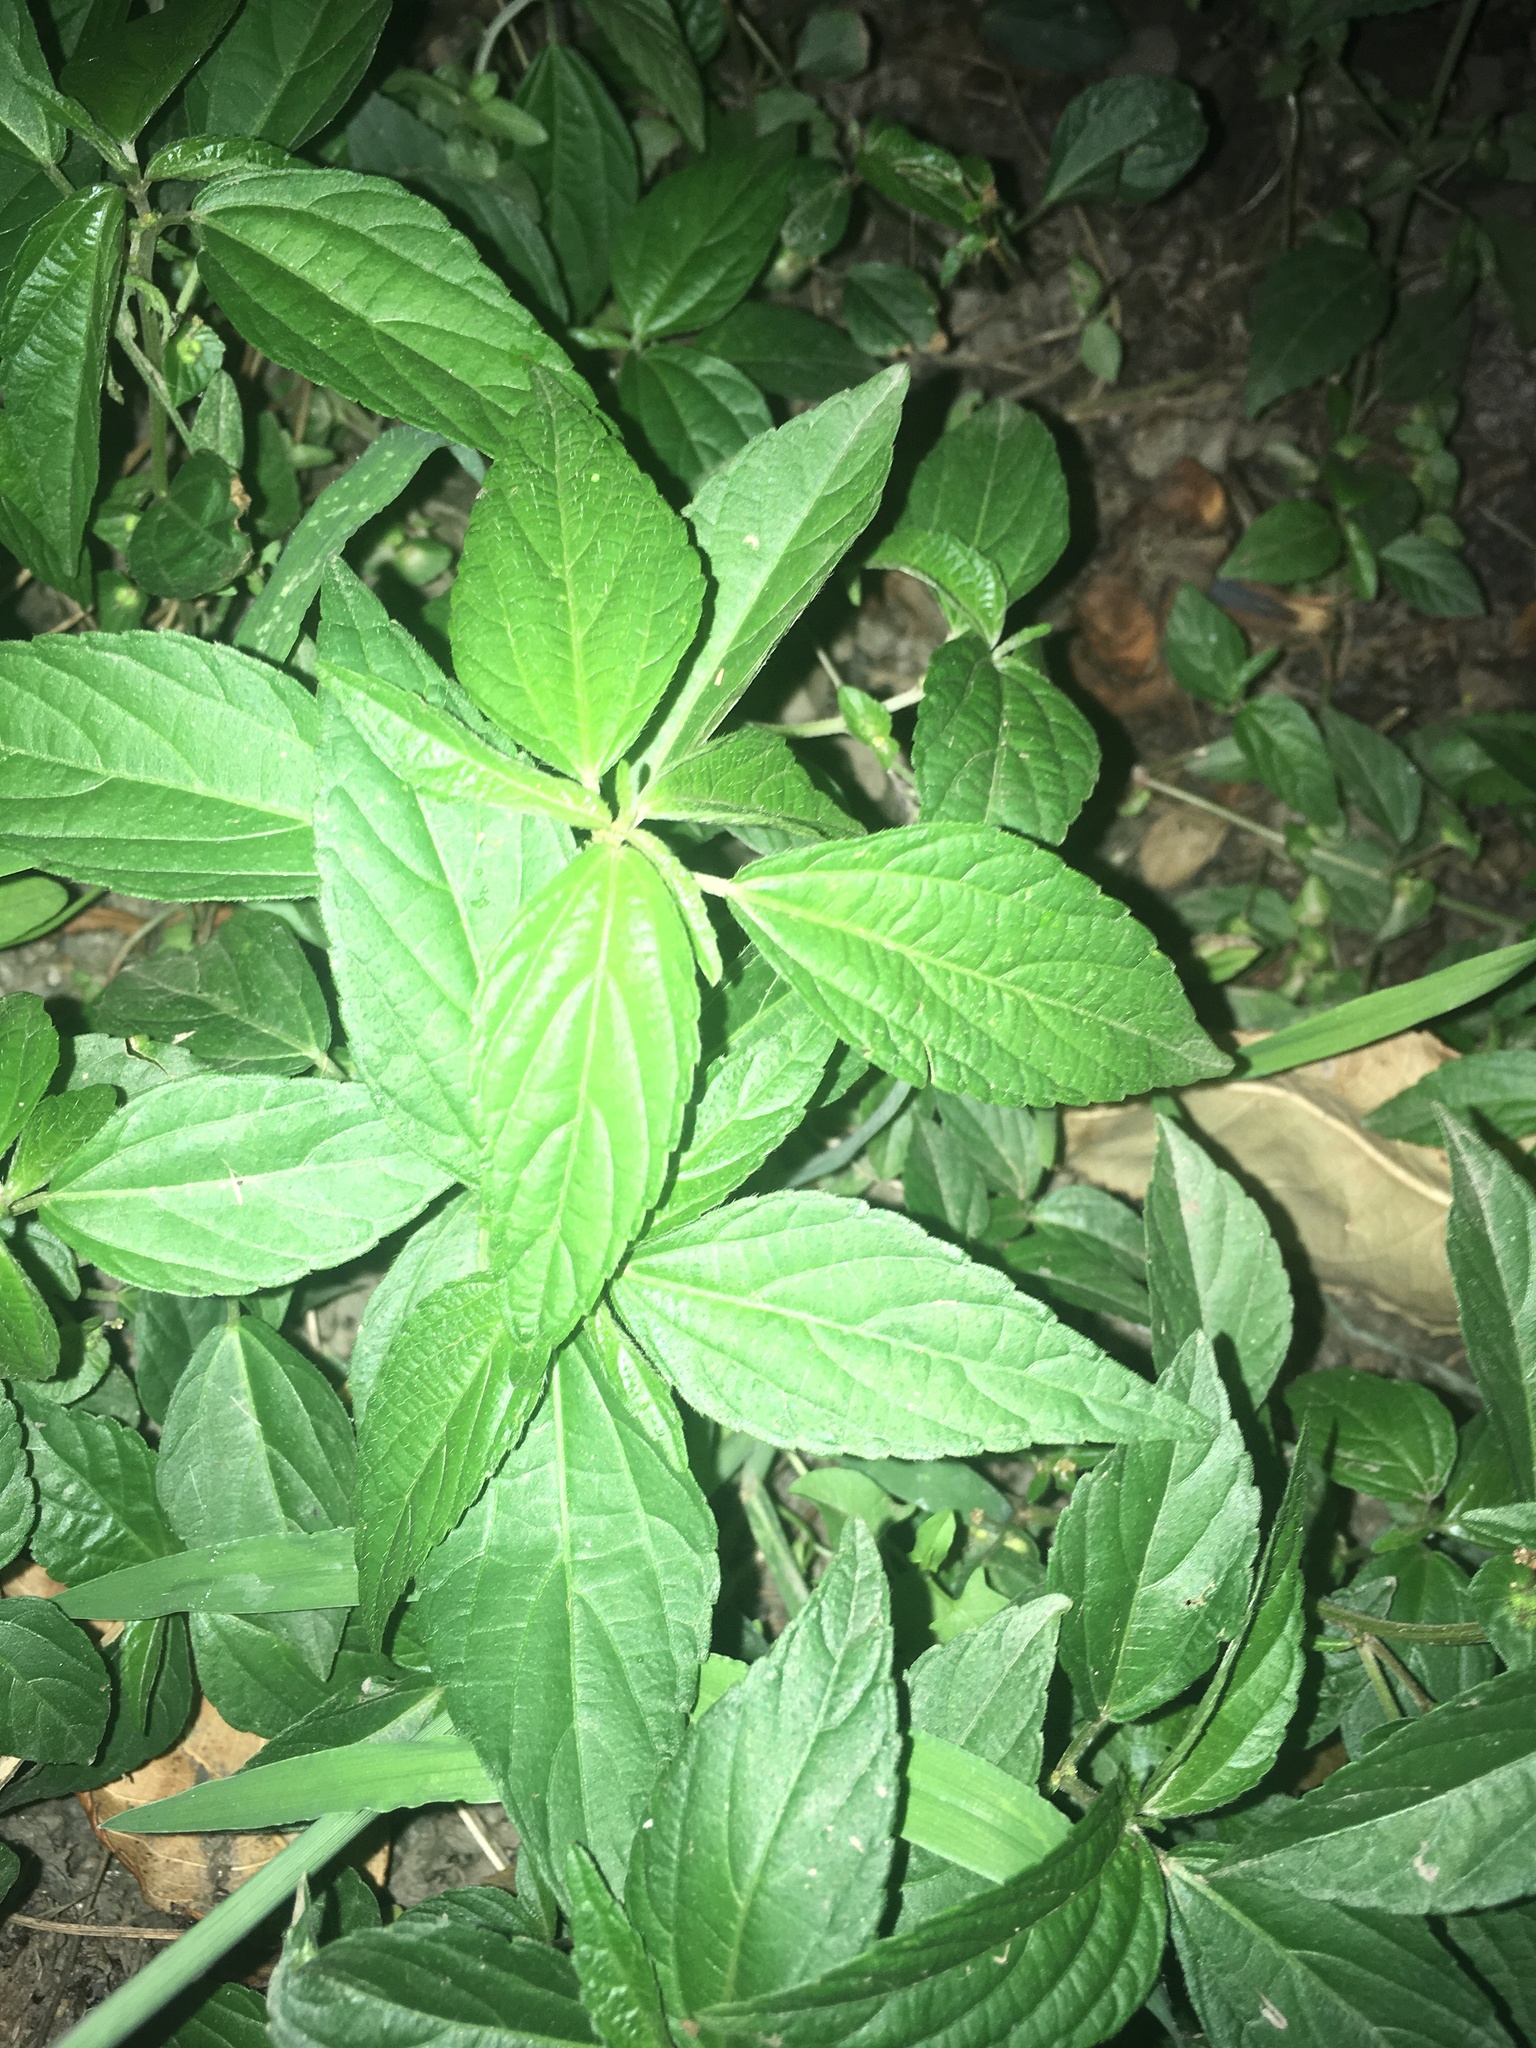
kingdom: Plantae
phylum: Tracheophyta
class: Magnoliopsida
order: Malpighiales
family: Euphorbiaceae
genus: Acalypha
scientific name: Acalypha australis
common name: Asian copperleaf
